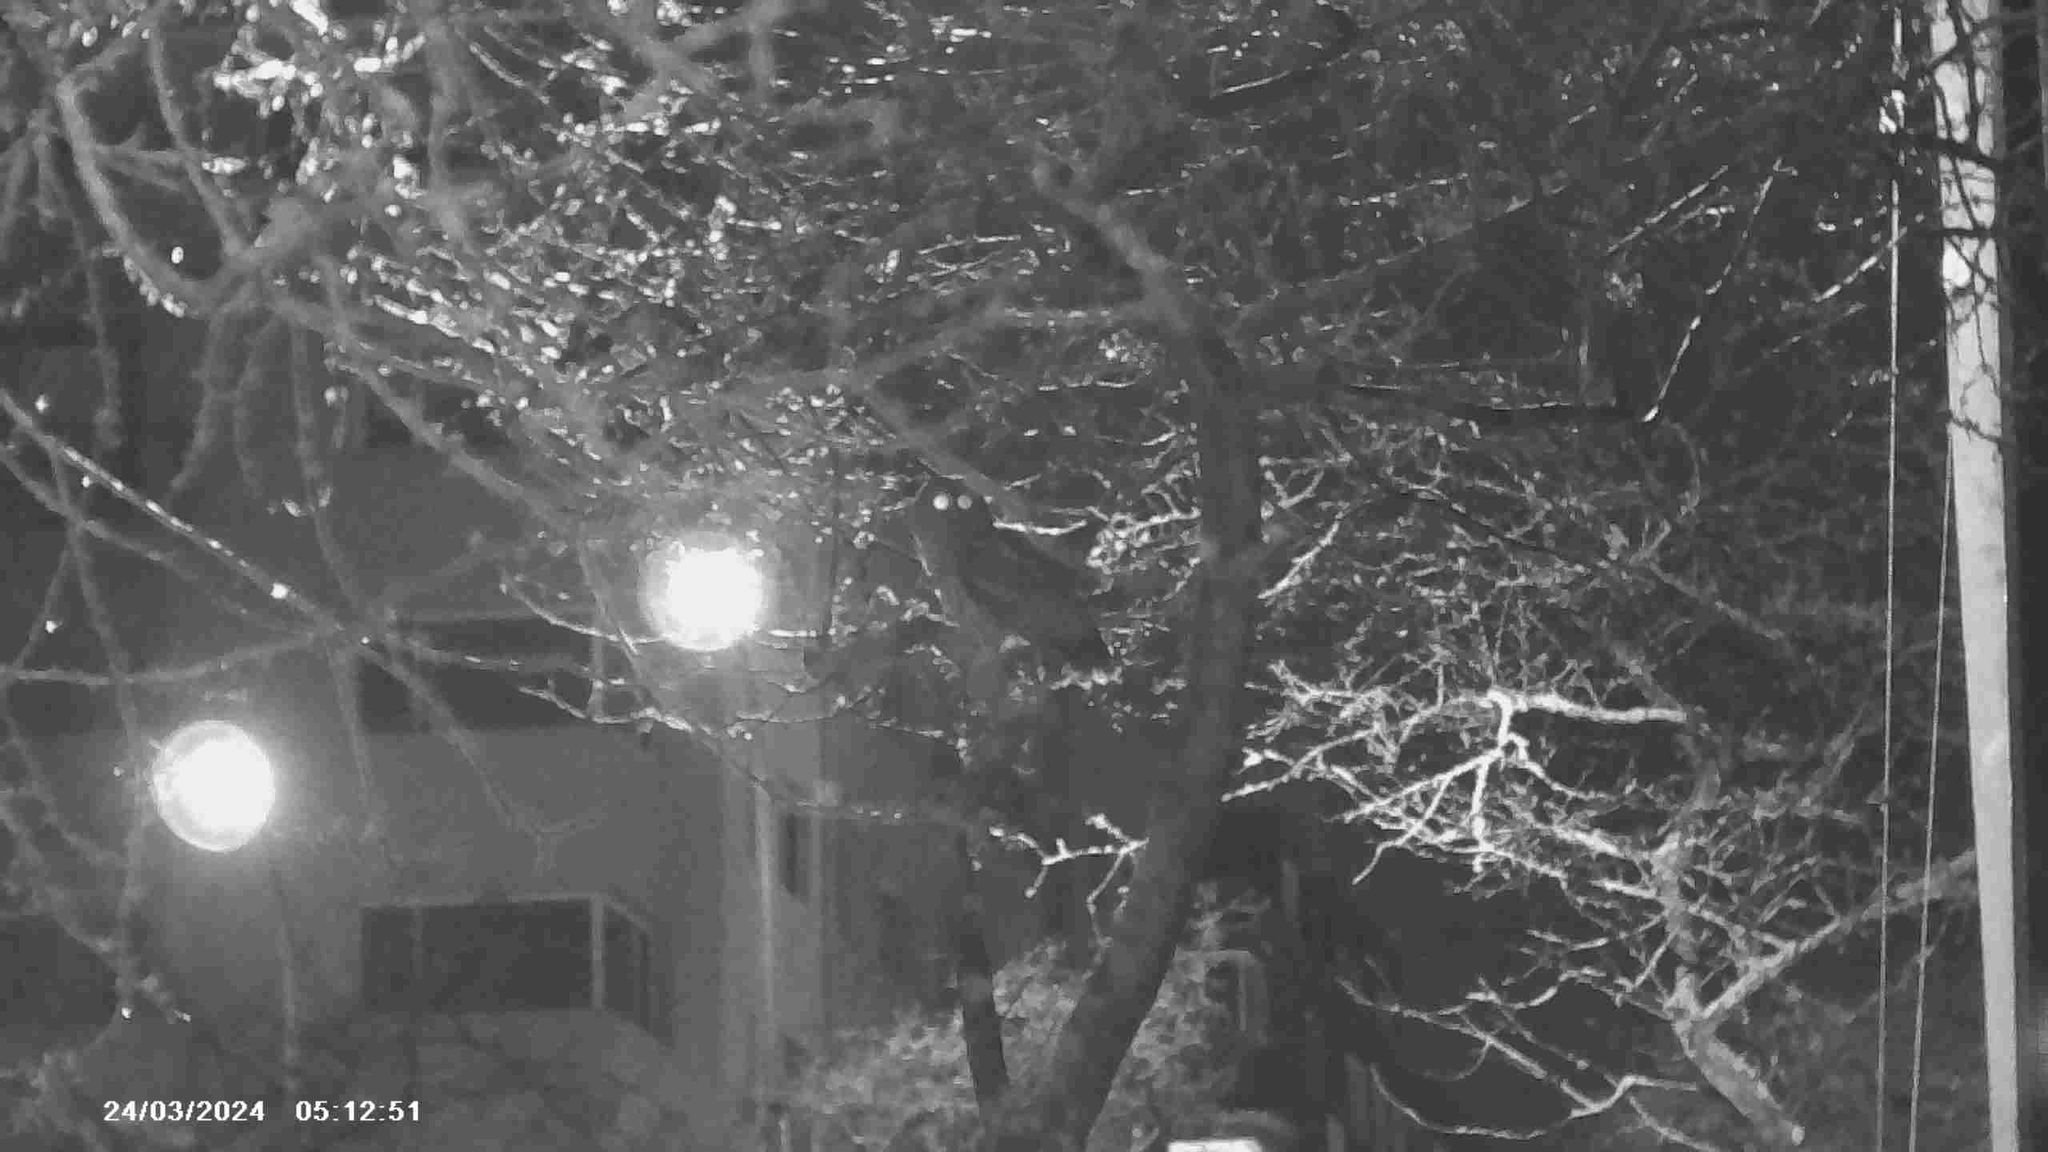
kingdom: Animalia
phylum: Chordata
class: Aves
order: Strigiformes
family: Strigidae
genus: Strix
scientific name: Strix varia
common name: Barred owl
